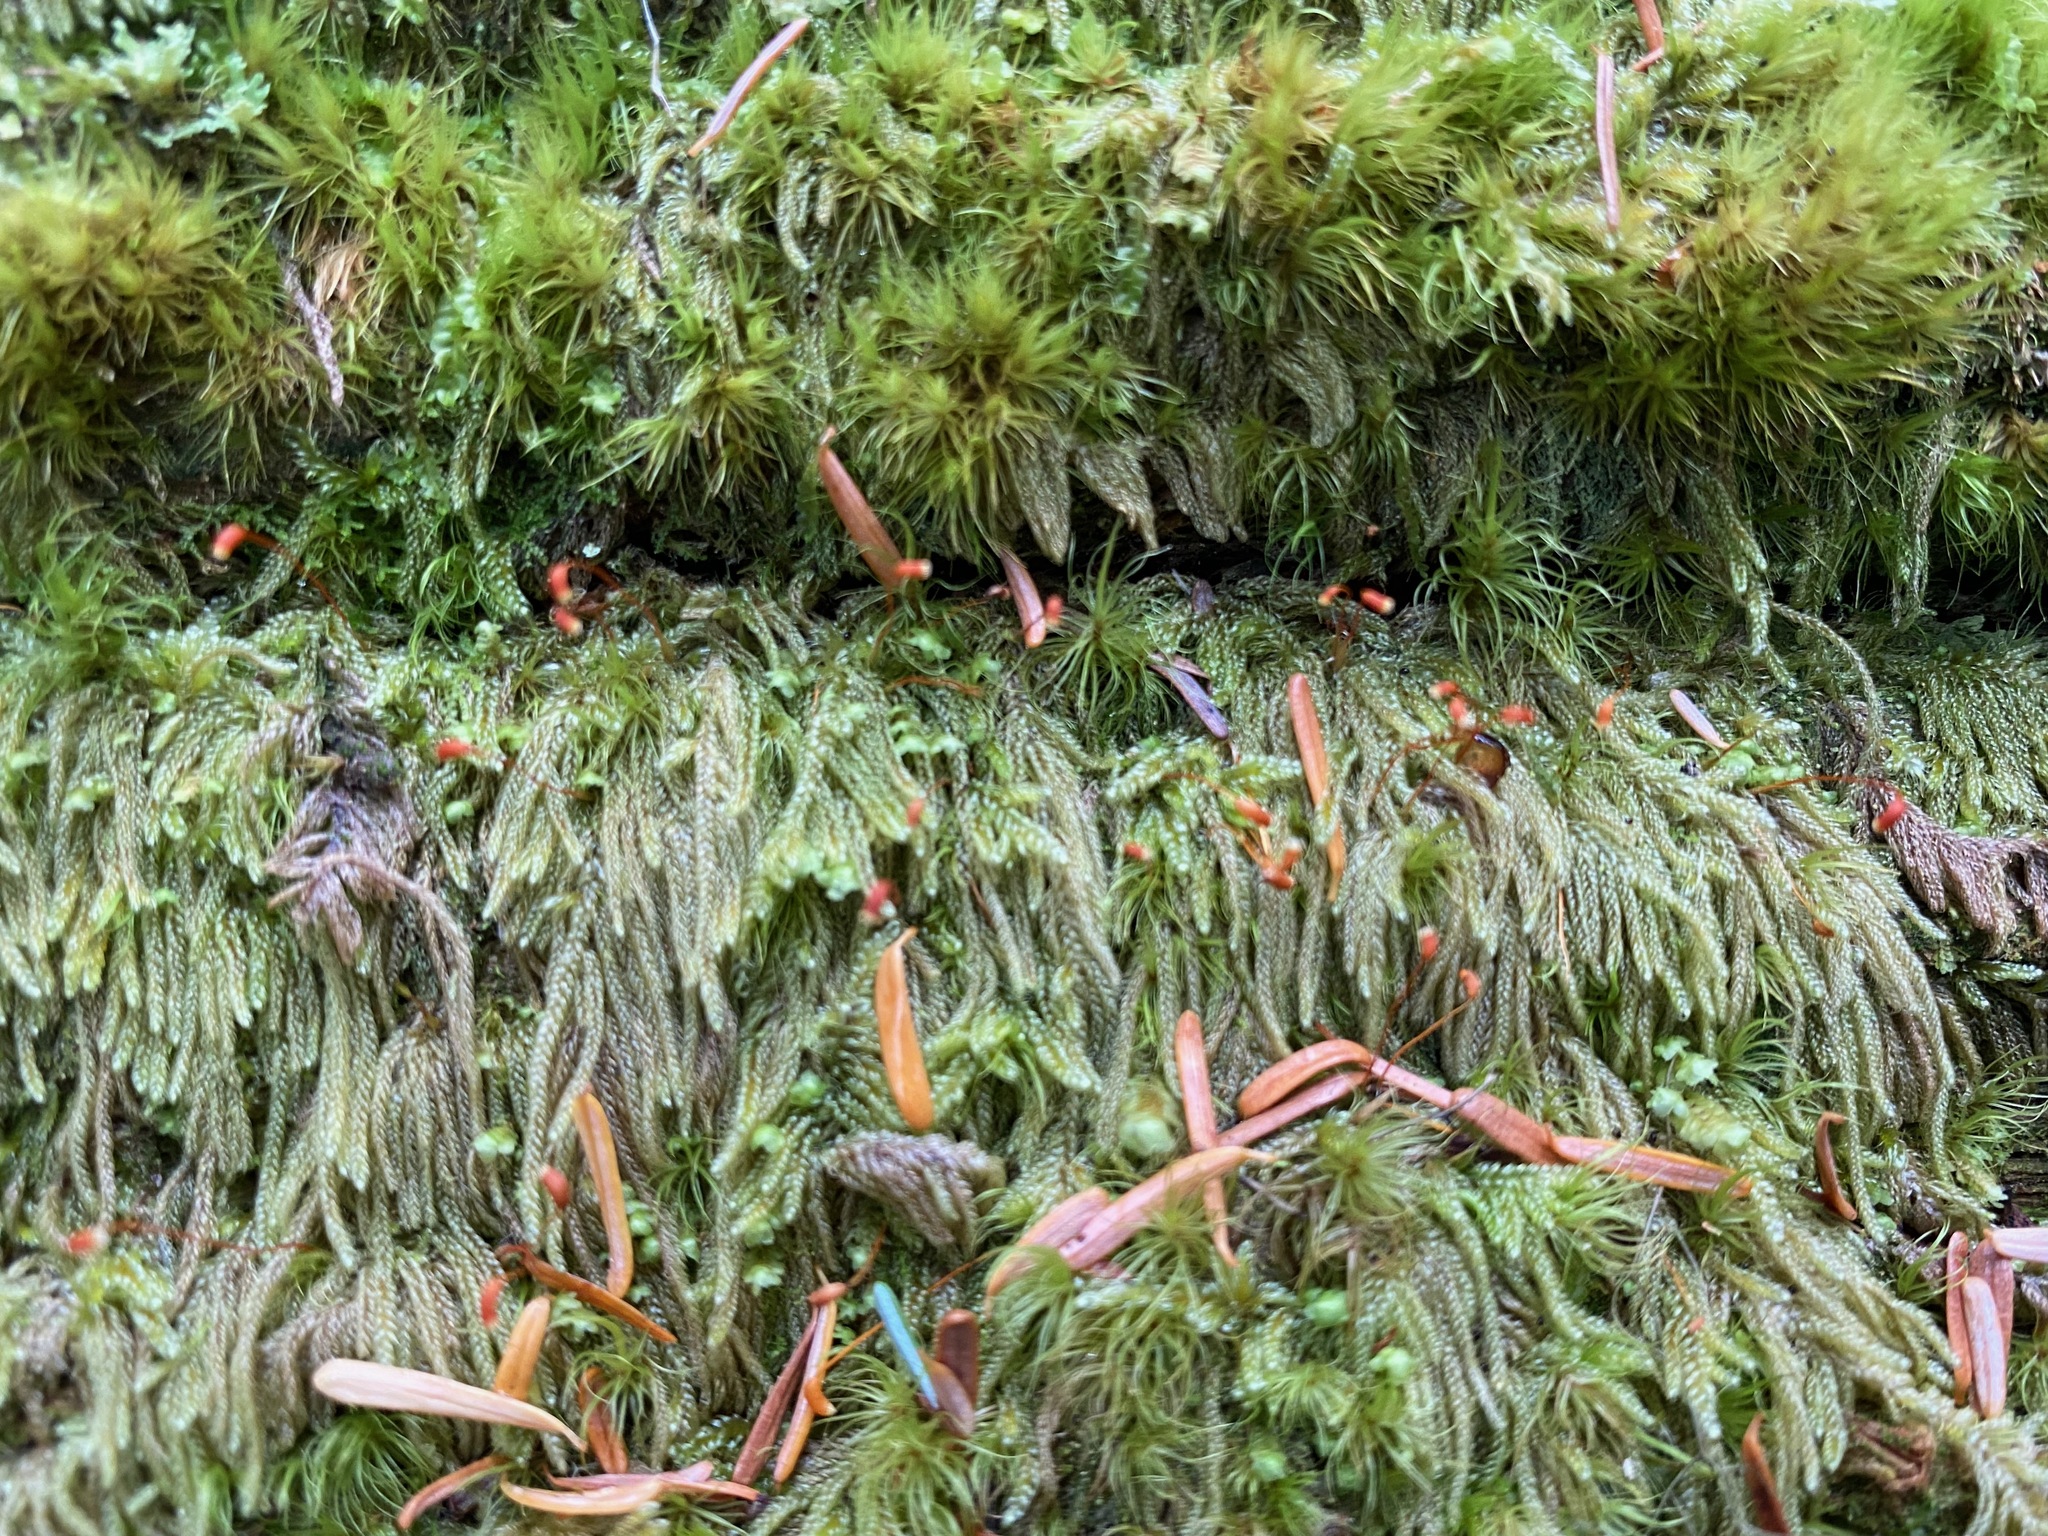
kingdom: Plantae
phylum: Bryophyta
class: Bryopsida
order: Hypnales
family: Pylaisiadelphaceae
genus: Trochophyllohypnum
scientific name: Trochophyllohypnum circinale
